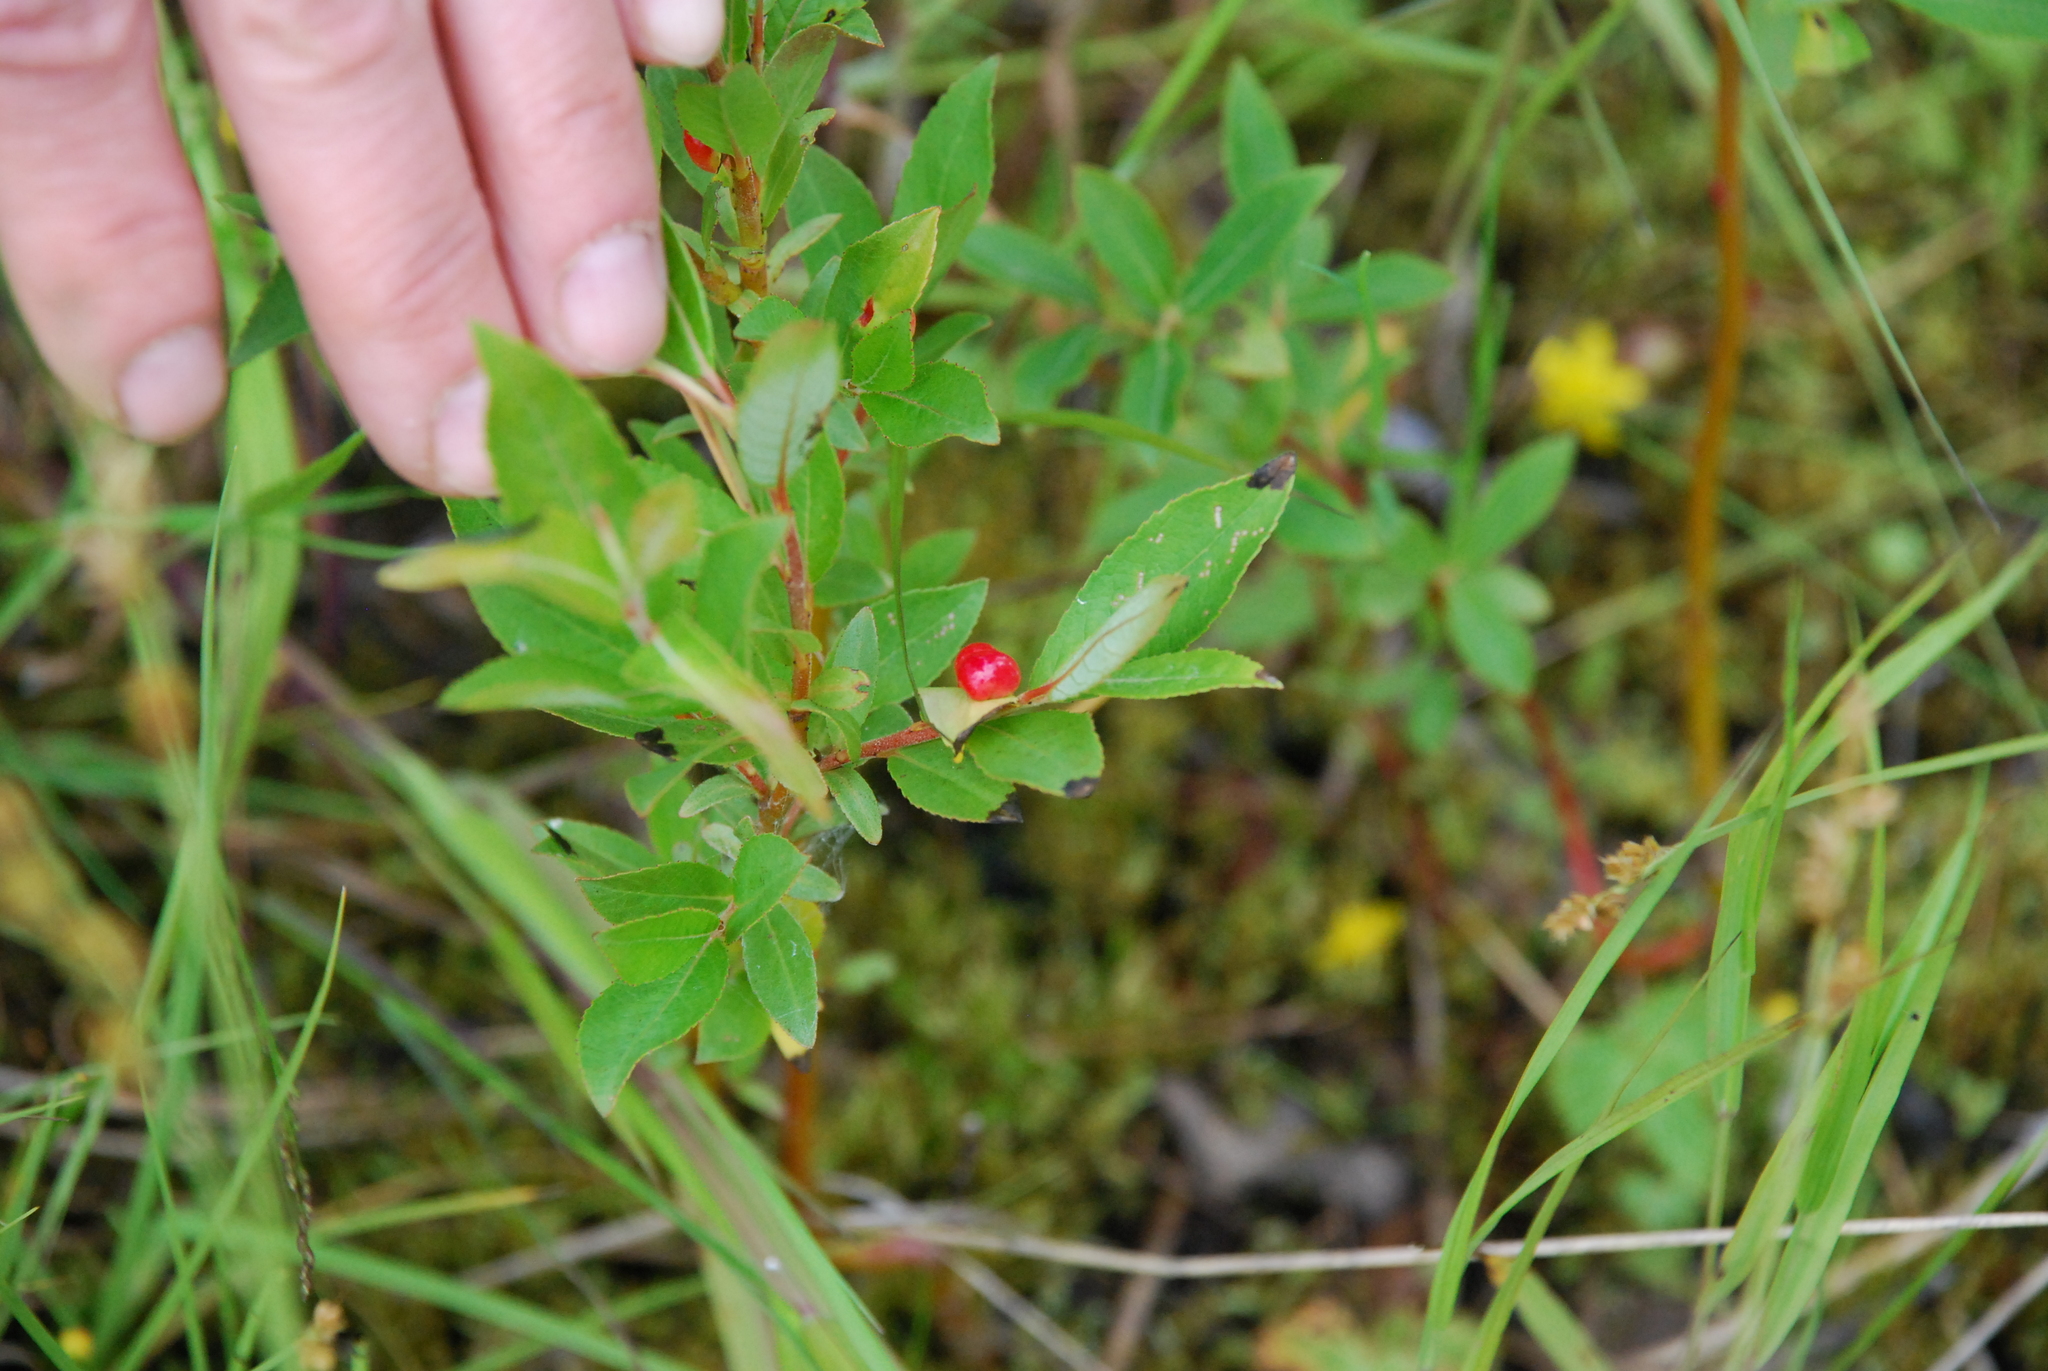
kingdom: Plantae
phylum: Tracheophyta
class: Magnoliopsida
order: Malpighiales
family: Salicaceae
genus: Salix
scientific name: Salix myrsinifolia
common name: Dark-leaved willow
